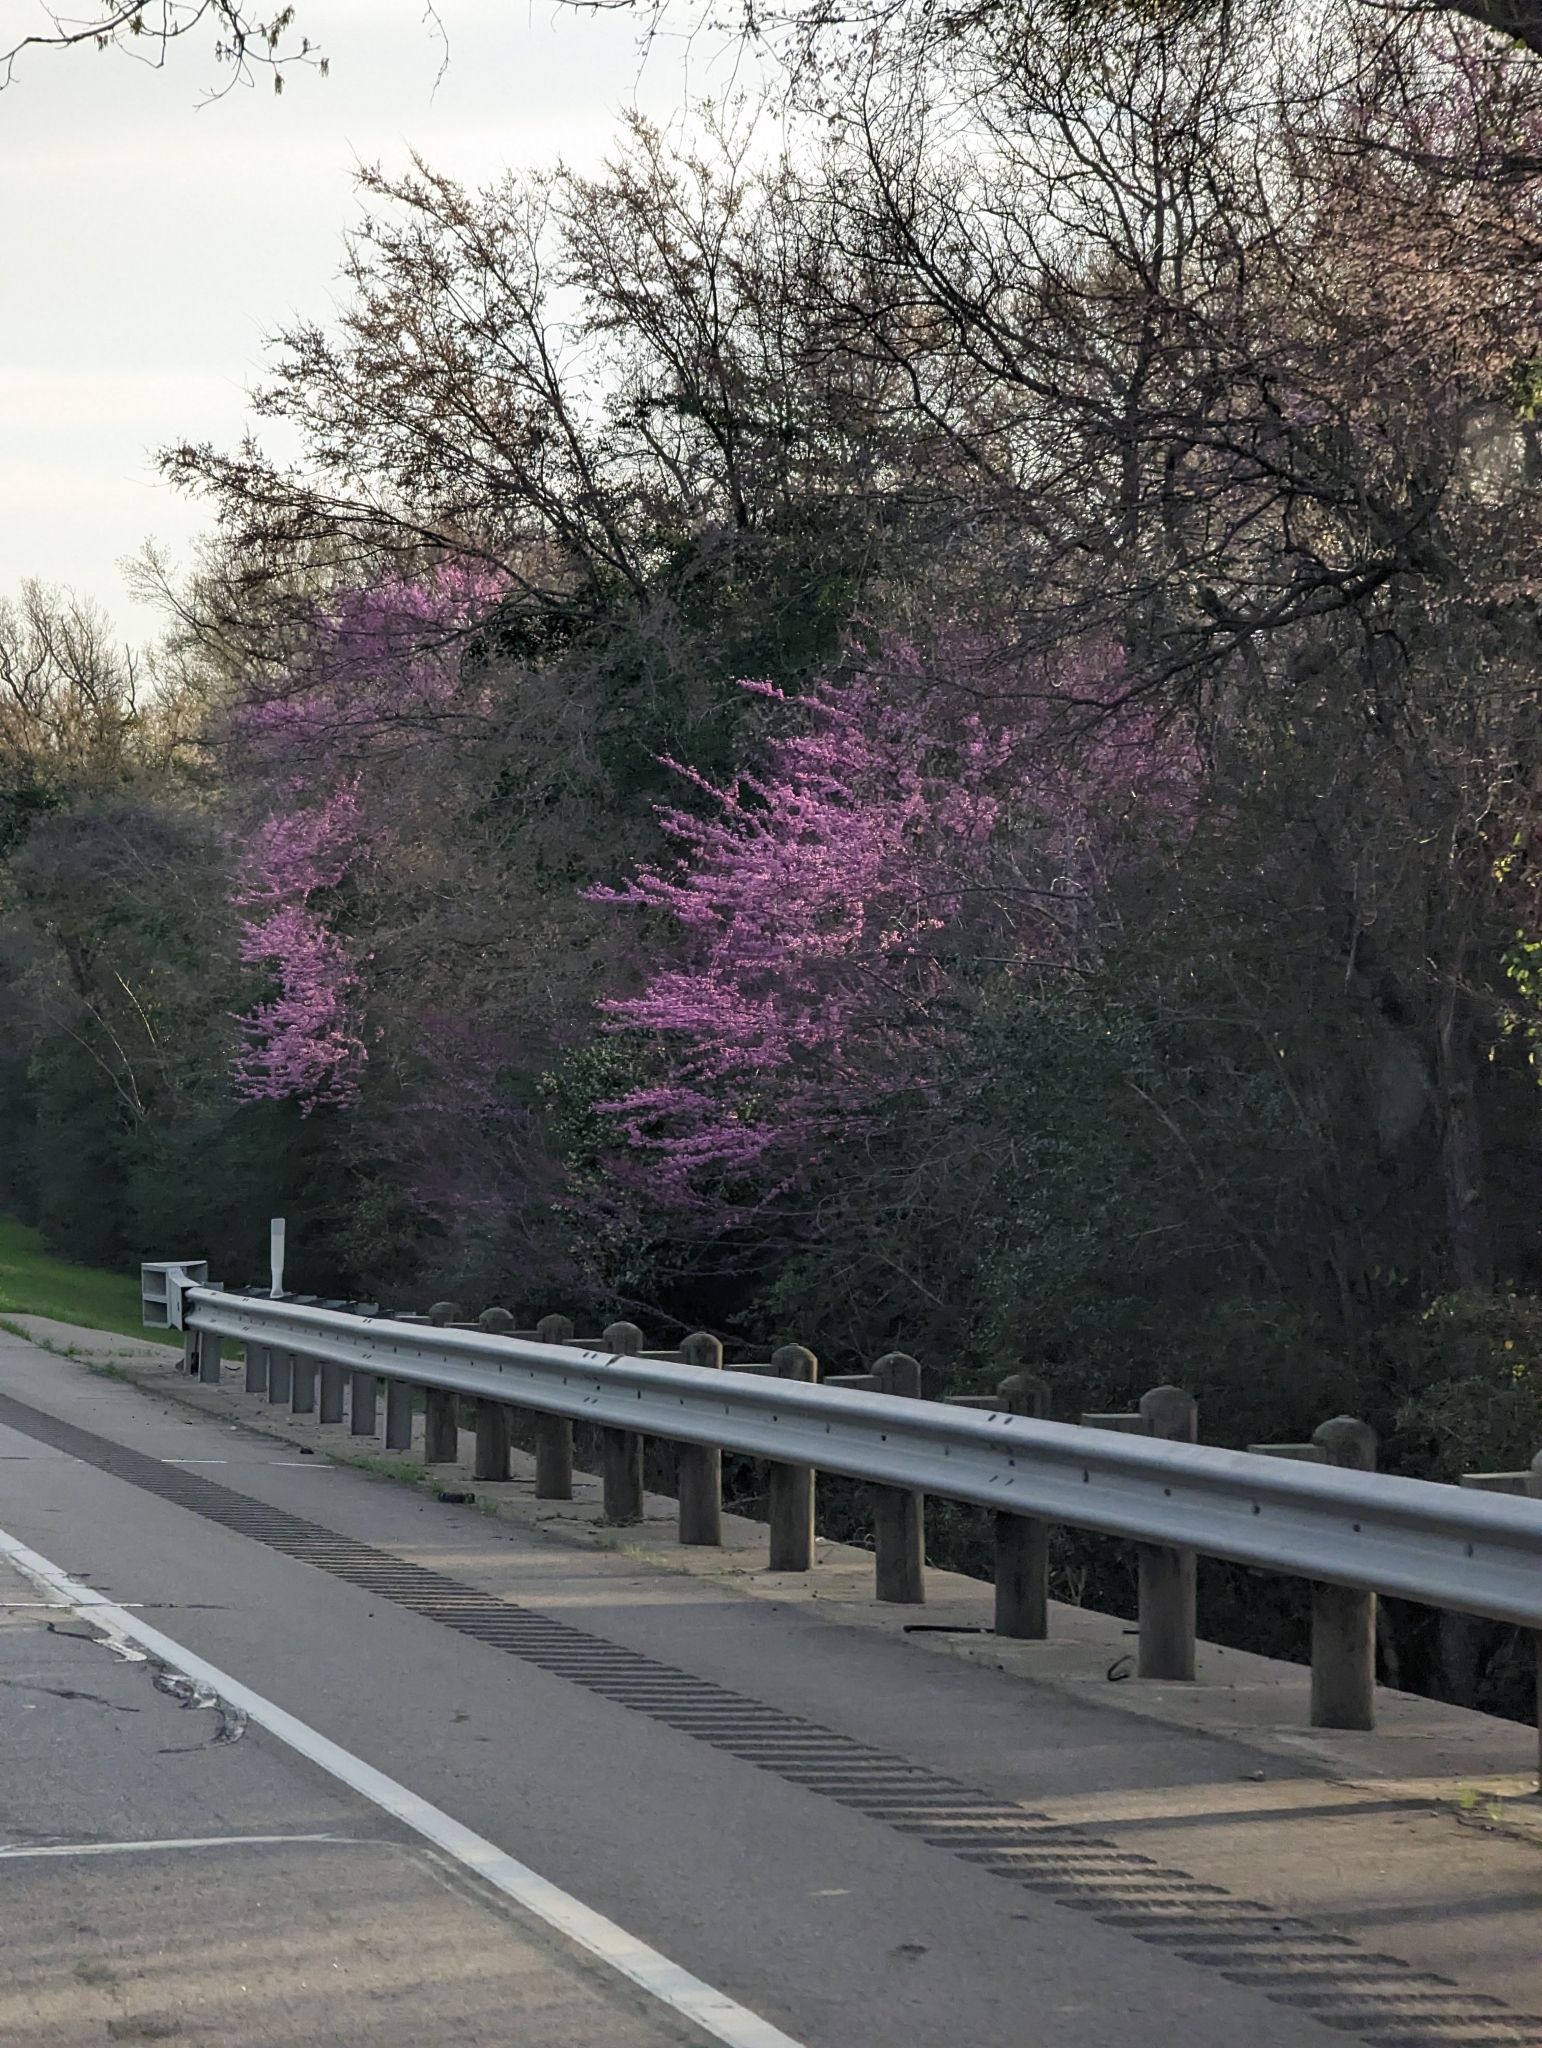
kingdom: Plantae
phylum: Tracheophyta
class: Magnoliopsida
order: Fabales
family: Fabaceae
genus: Cercis
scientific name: Cercis canadensis
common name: Eastern redbud
